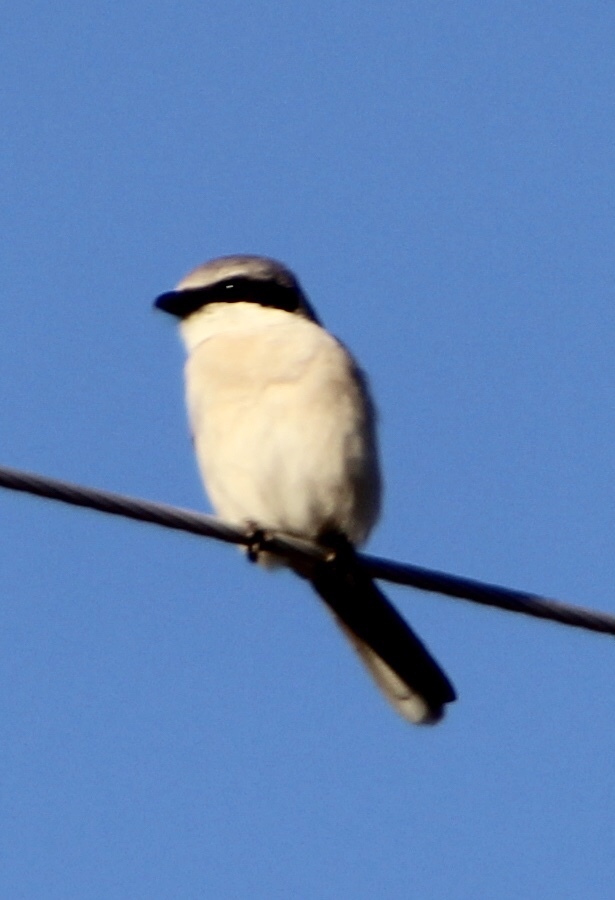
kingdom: Animalia
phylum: Chordata
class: Aves
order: Passeriformes
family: Laniidae
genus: Lanius
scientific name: Lanius ludovicianus
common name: Loggerhead shrike
